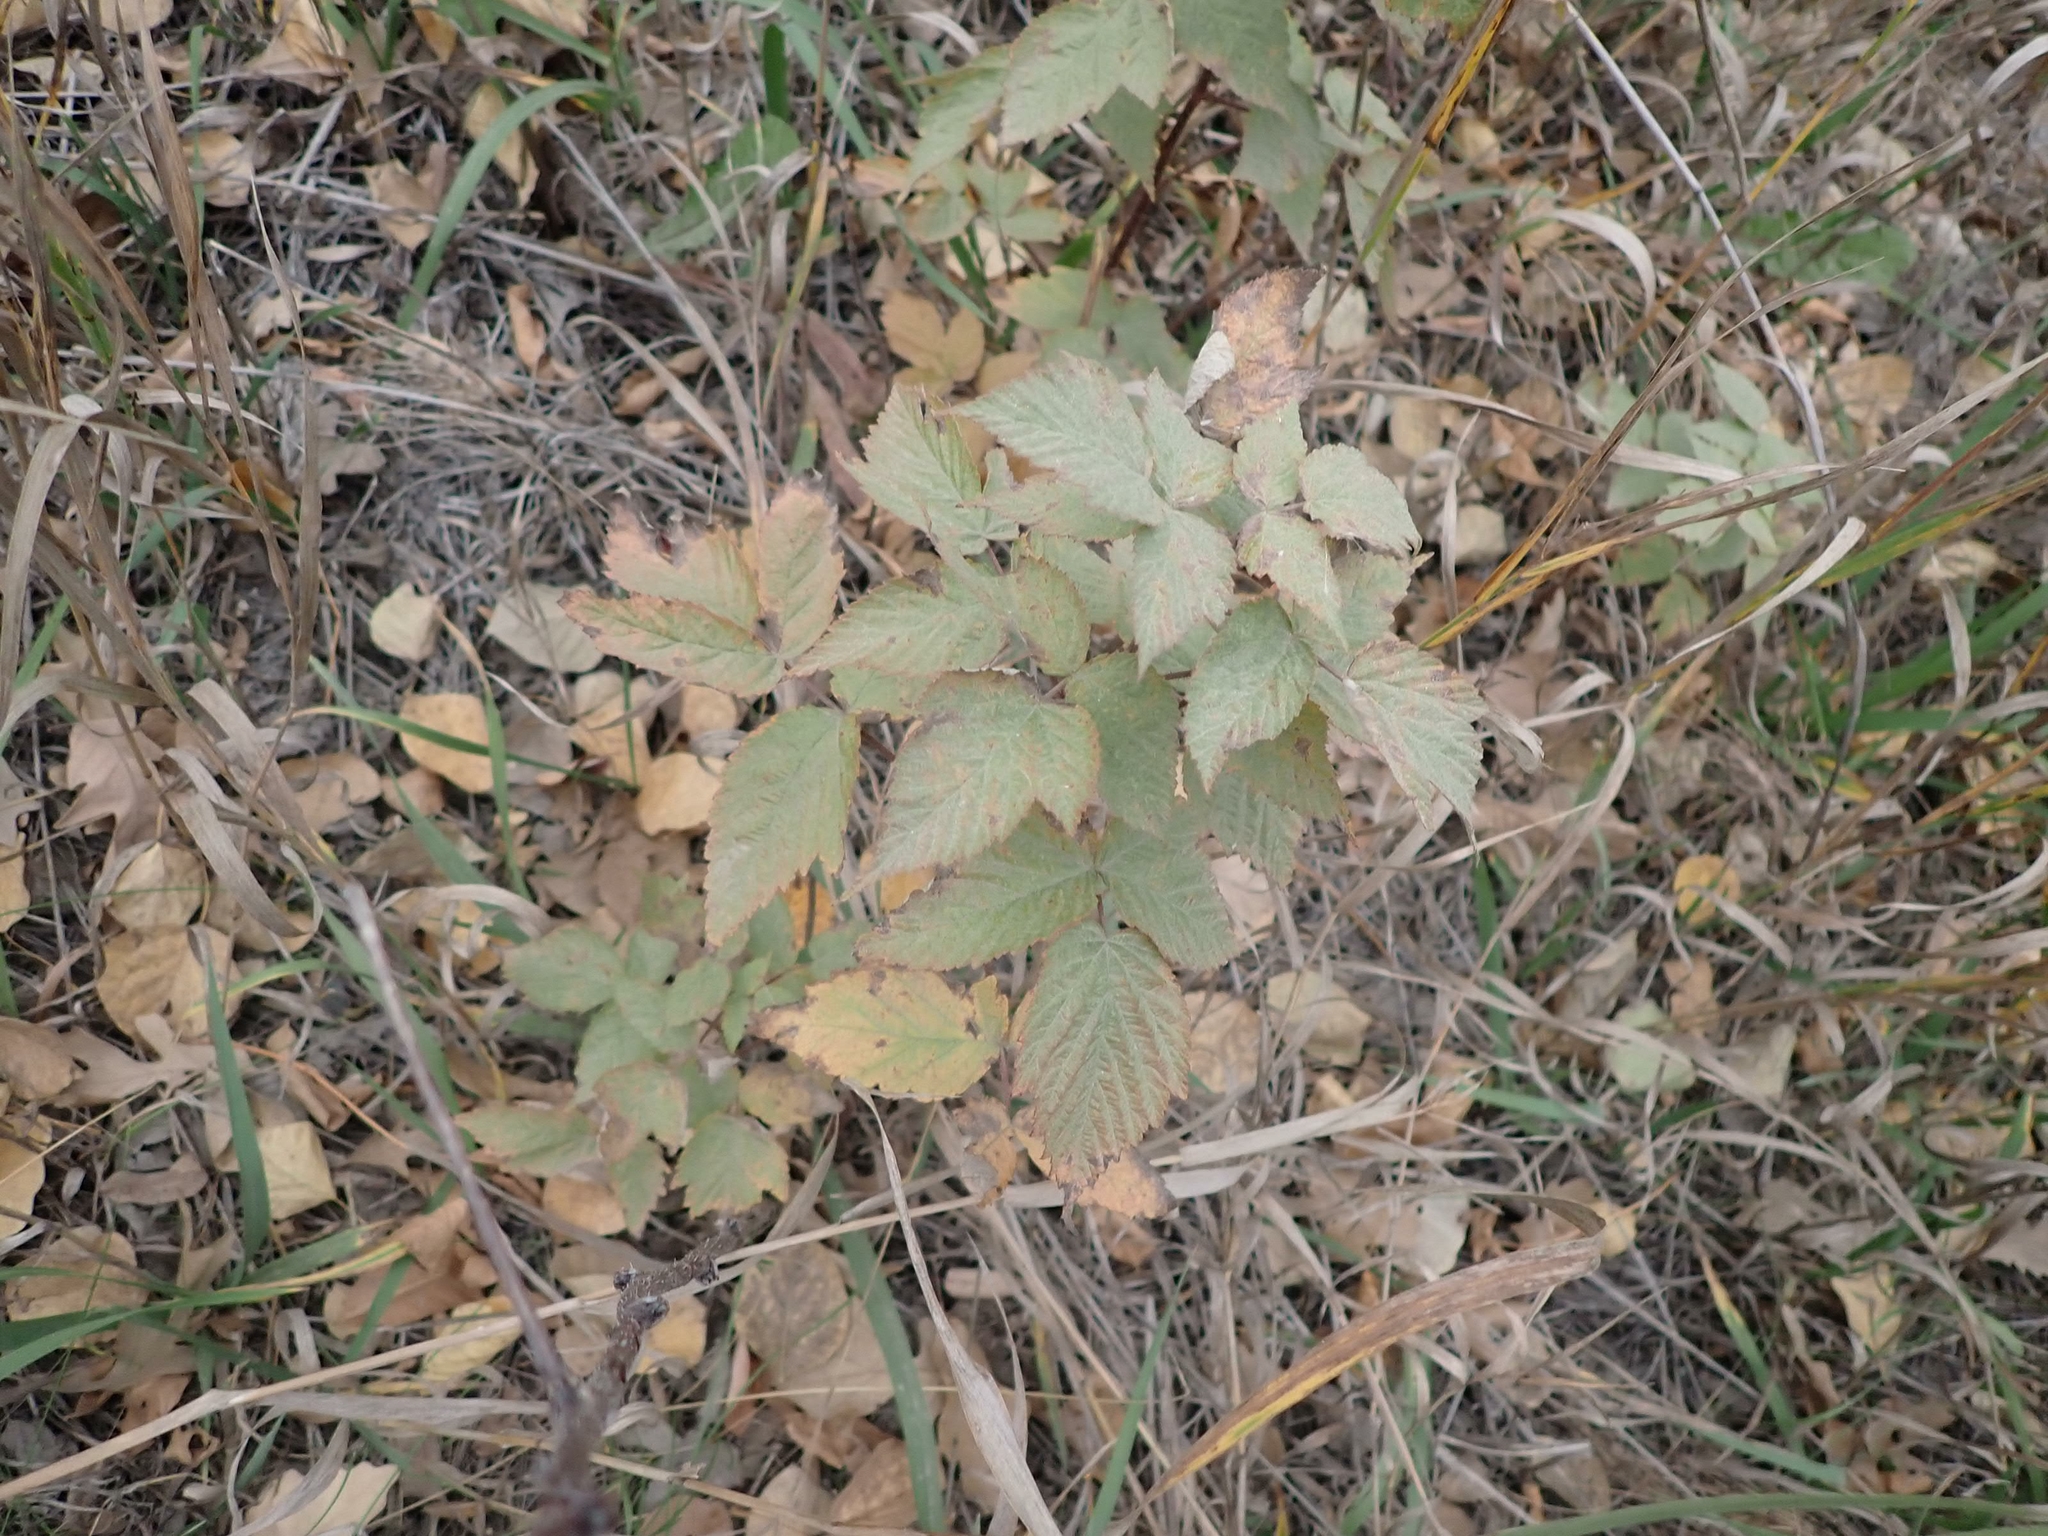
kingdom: Plantae
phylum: Tracheophyta
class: Magnoliopsida
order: Rosales
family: Rosaceae
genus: Rubus
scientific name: Rubus idaeus
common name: Raspberry
